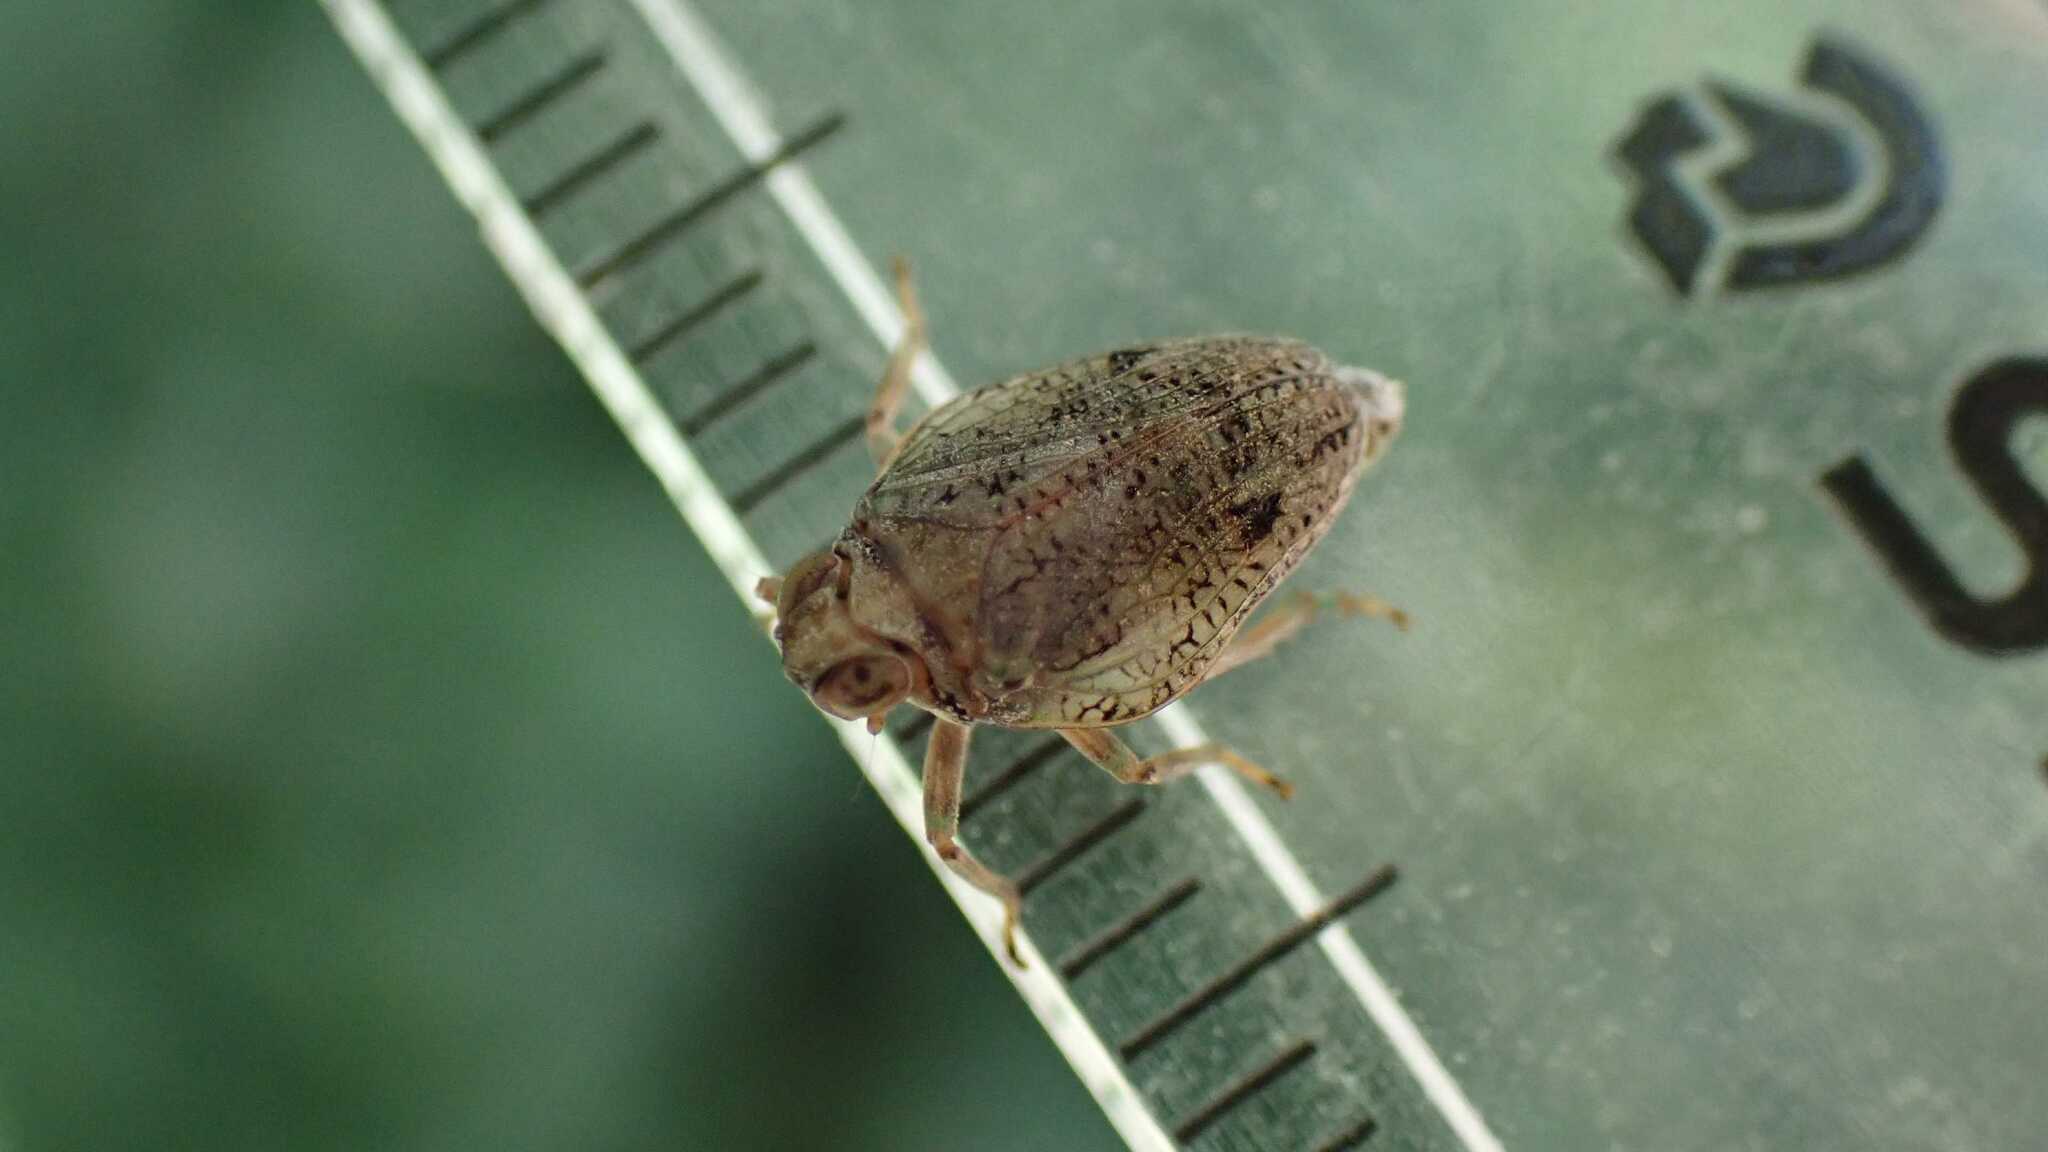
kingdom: Animalia
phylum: Arthropoda
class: Insecta
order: Hemiptera
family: Issidae
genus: Issus
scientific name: Issus coleoptratus
